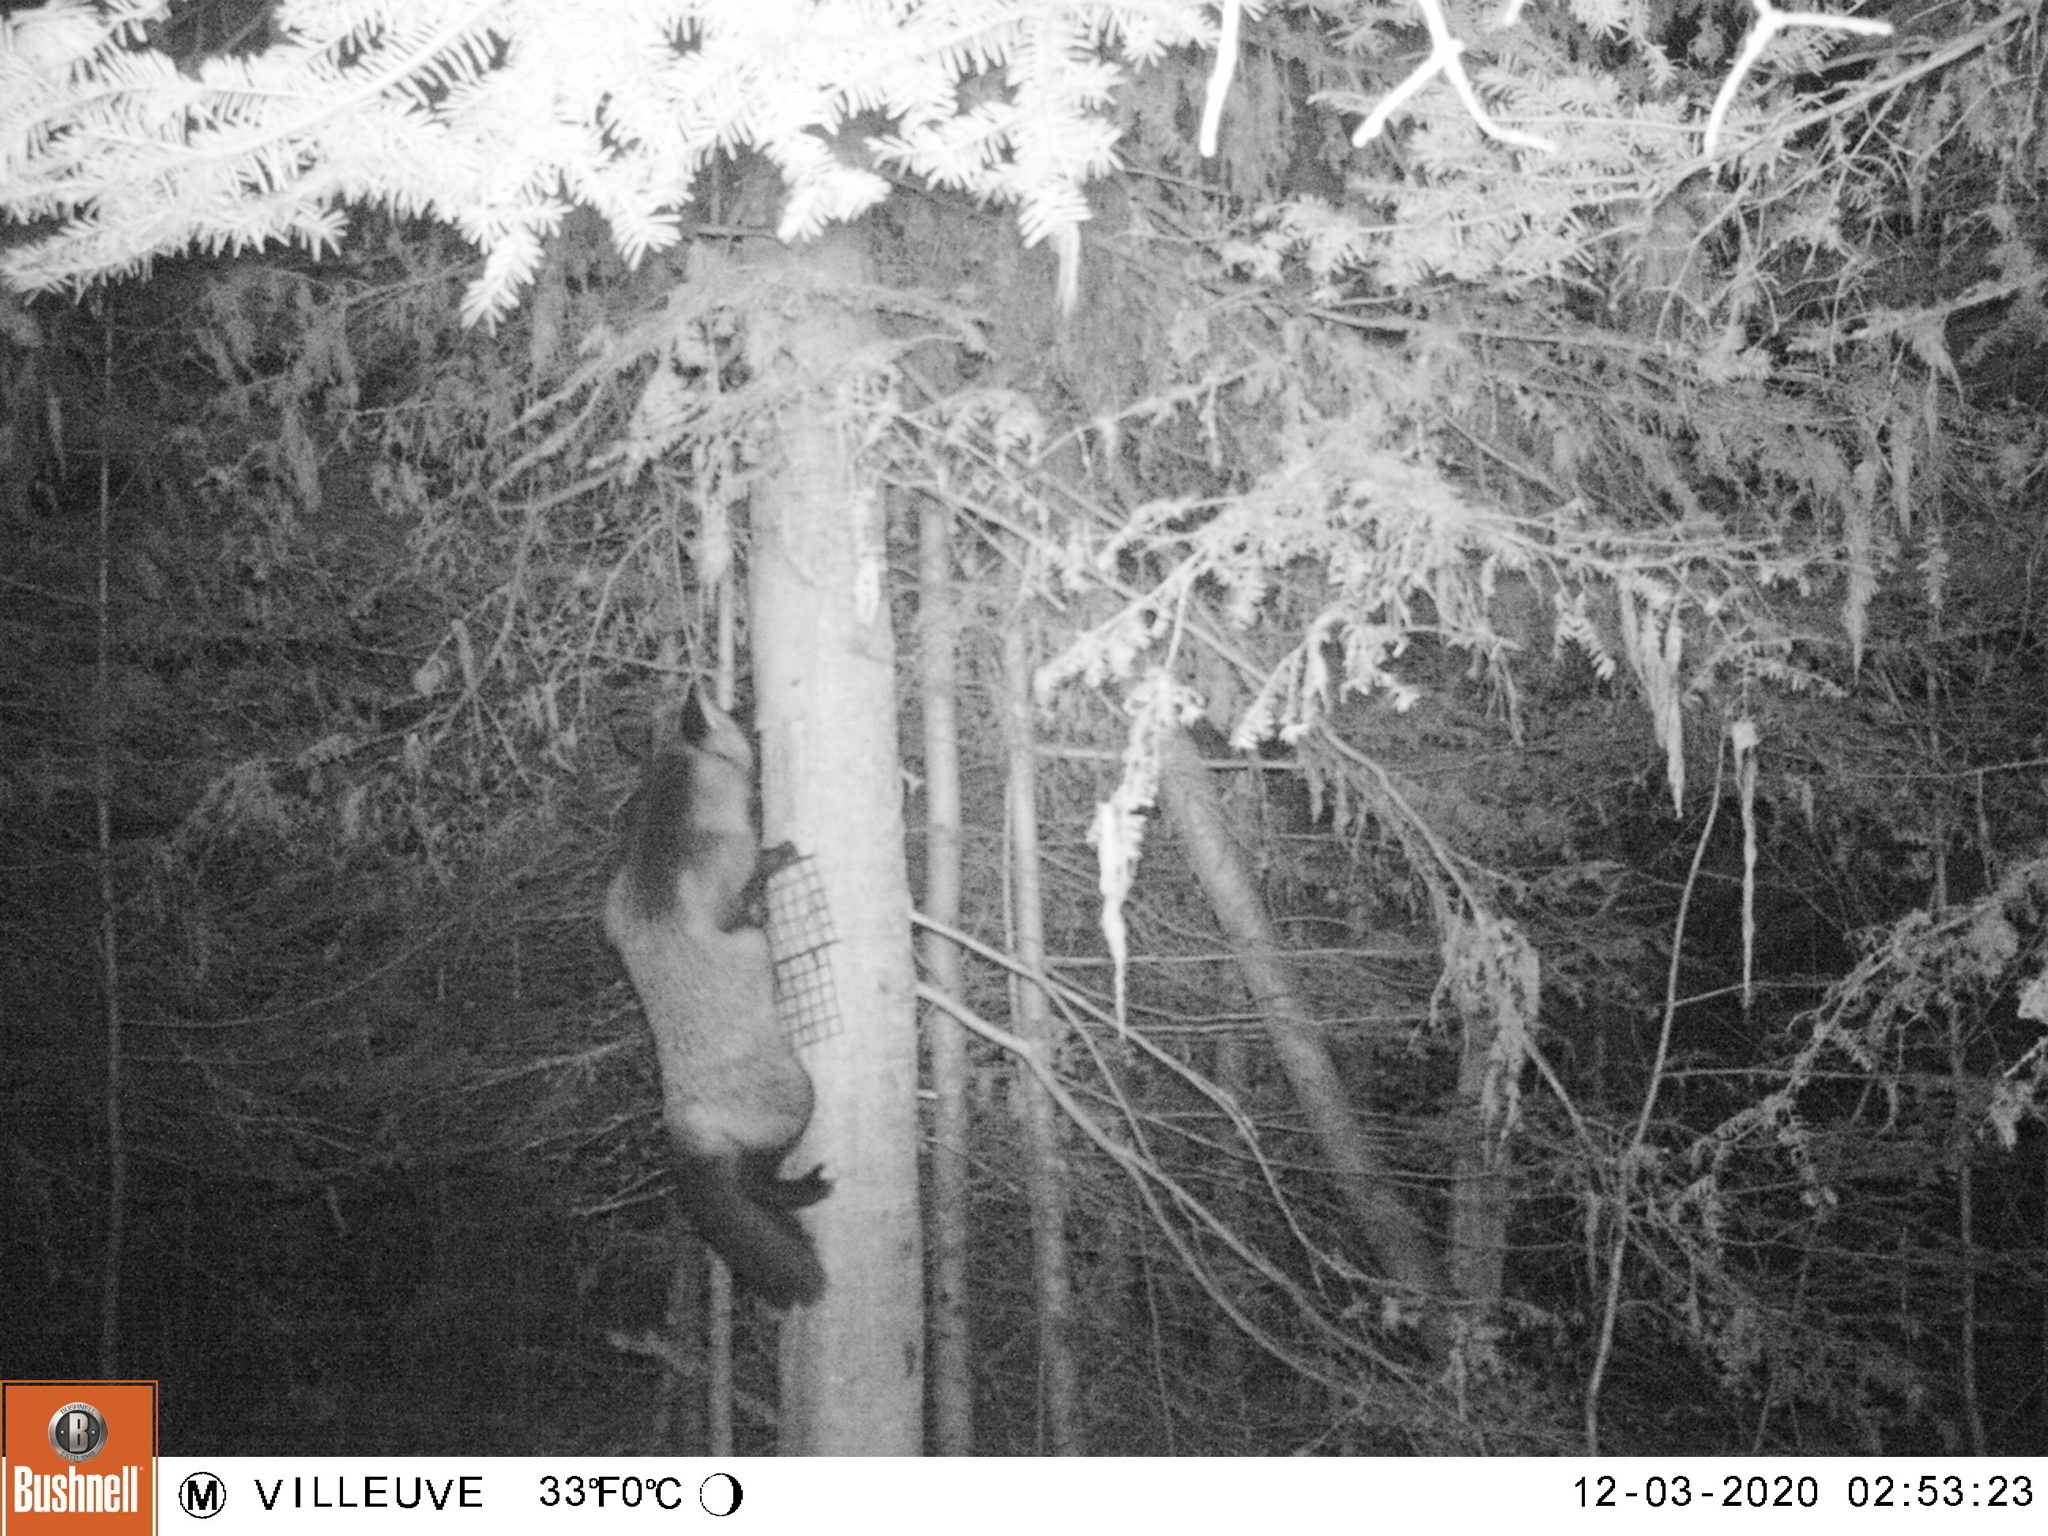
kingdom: Animalia
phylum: Chordata
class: Mammalia
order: Carnivora
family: Canidae
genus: Vulpes
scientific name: Vulpes vulpes
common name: Red fox
